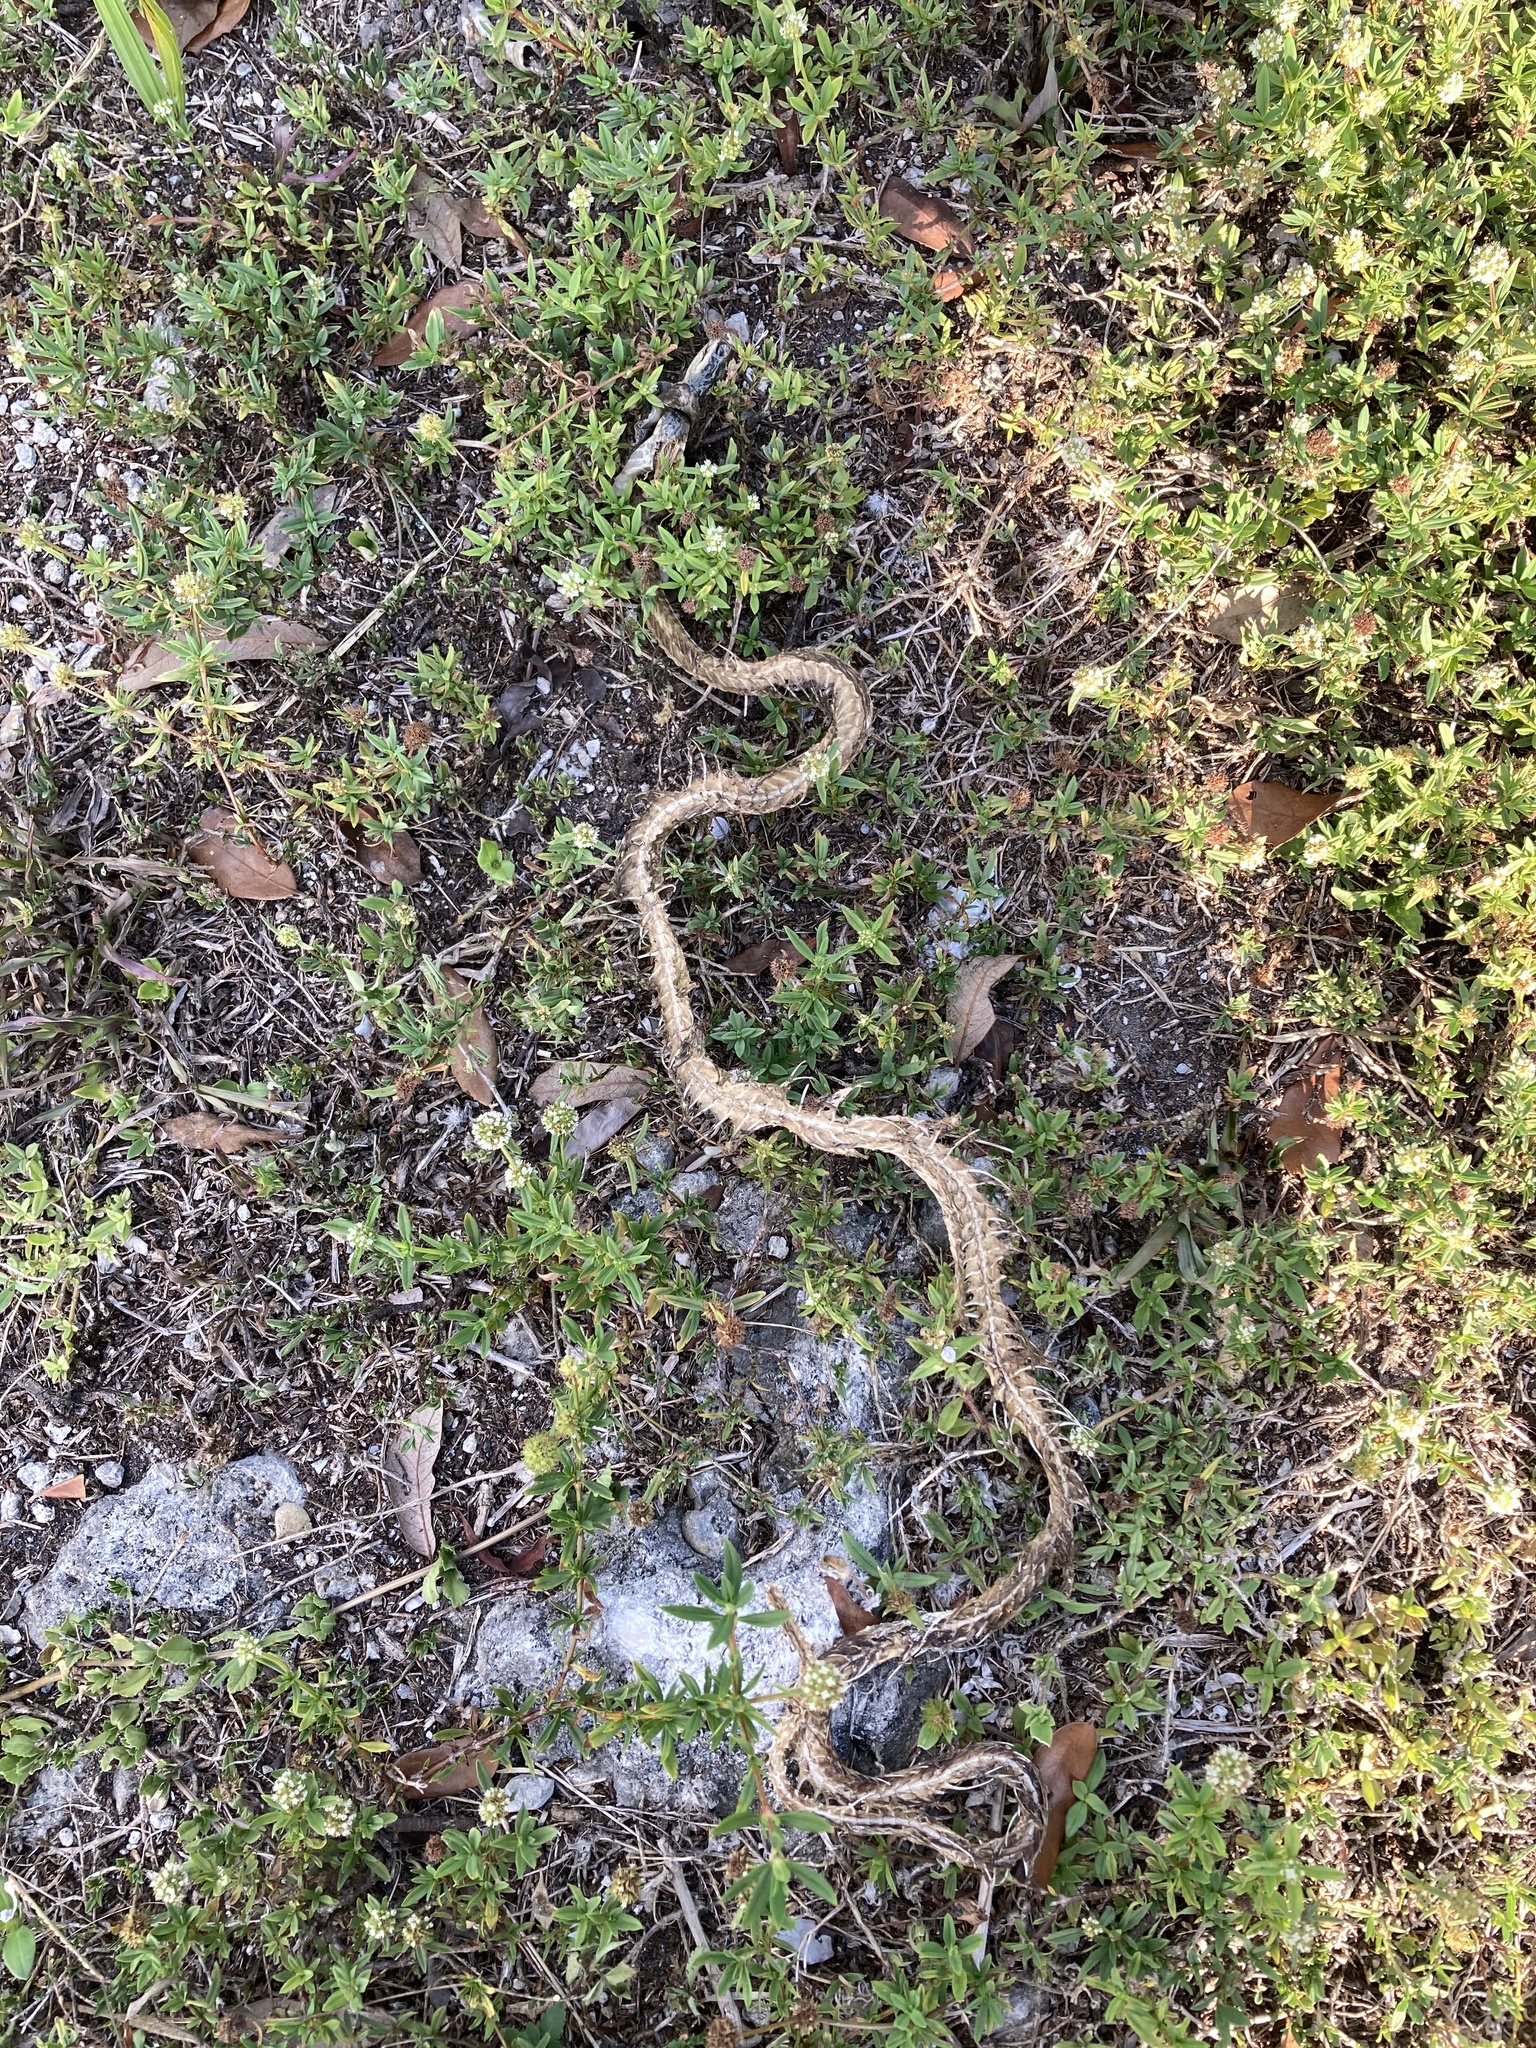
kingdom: Animalia
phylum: Chordata
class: Squamata
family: Colubridae
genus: Coluber
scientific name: Coluber constrictor
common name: Eastern racer
